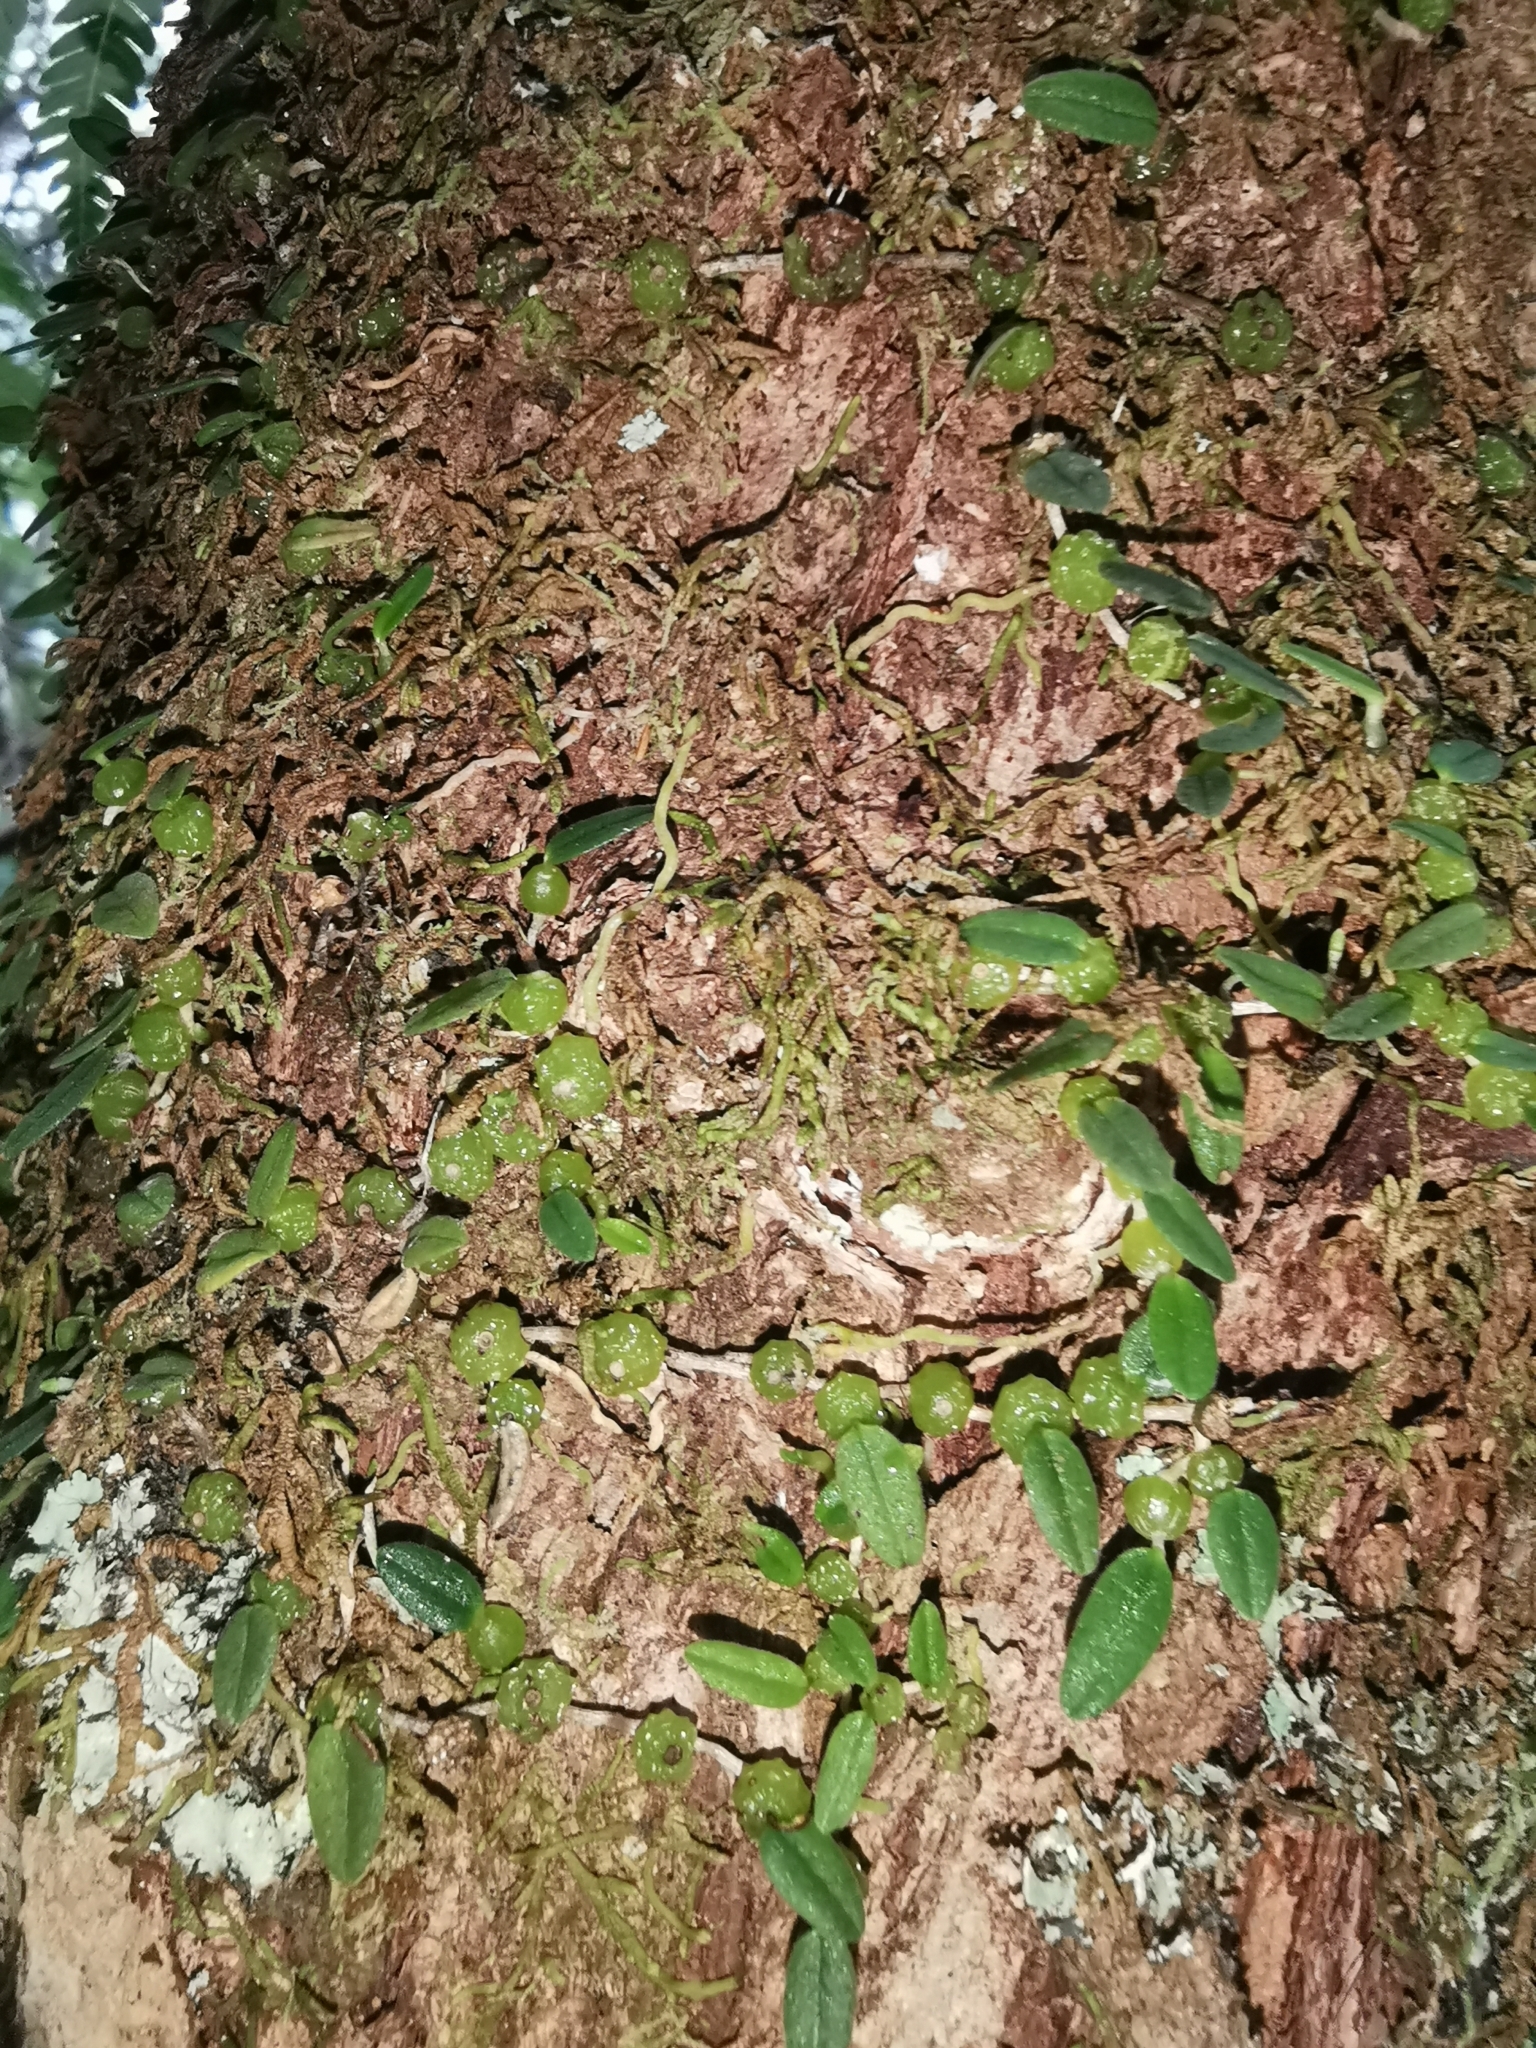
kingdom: Plantae
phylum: Tracheophyta
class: Liliopsida
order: Asparagales
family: Orchidaceae
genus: Bulbophyllum
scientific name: Bulbophyllum pygmaeum
